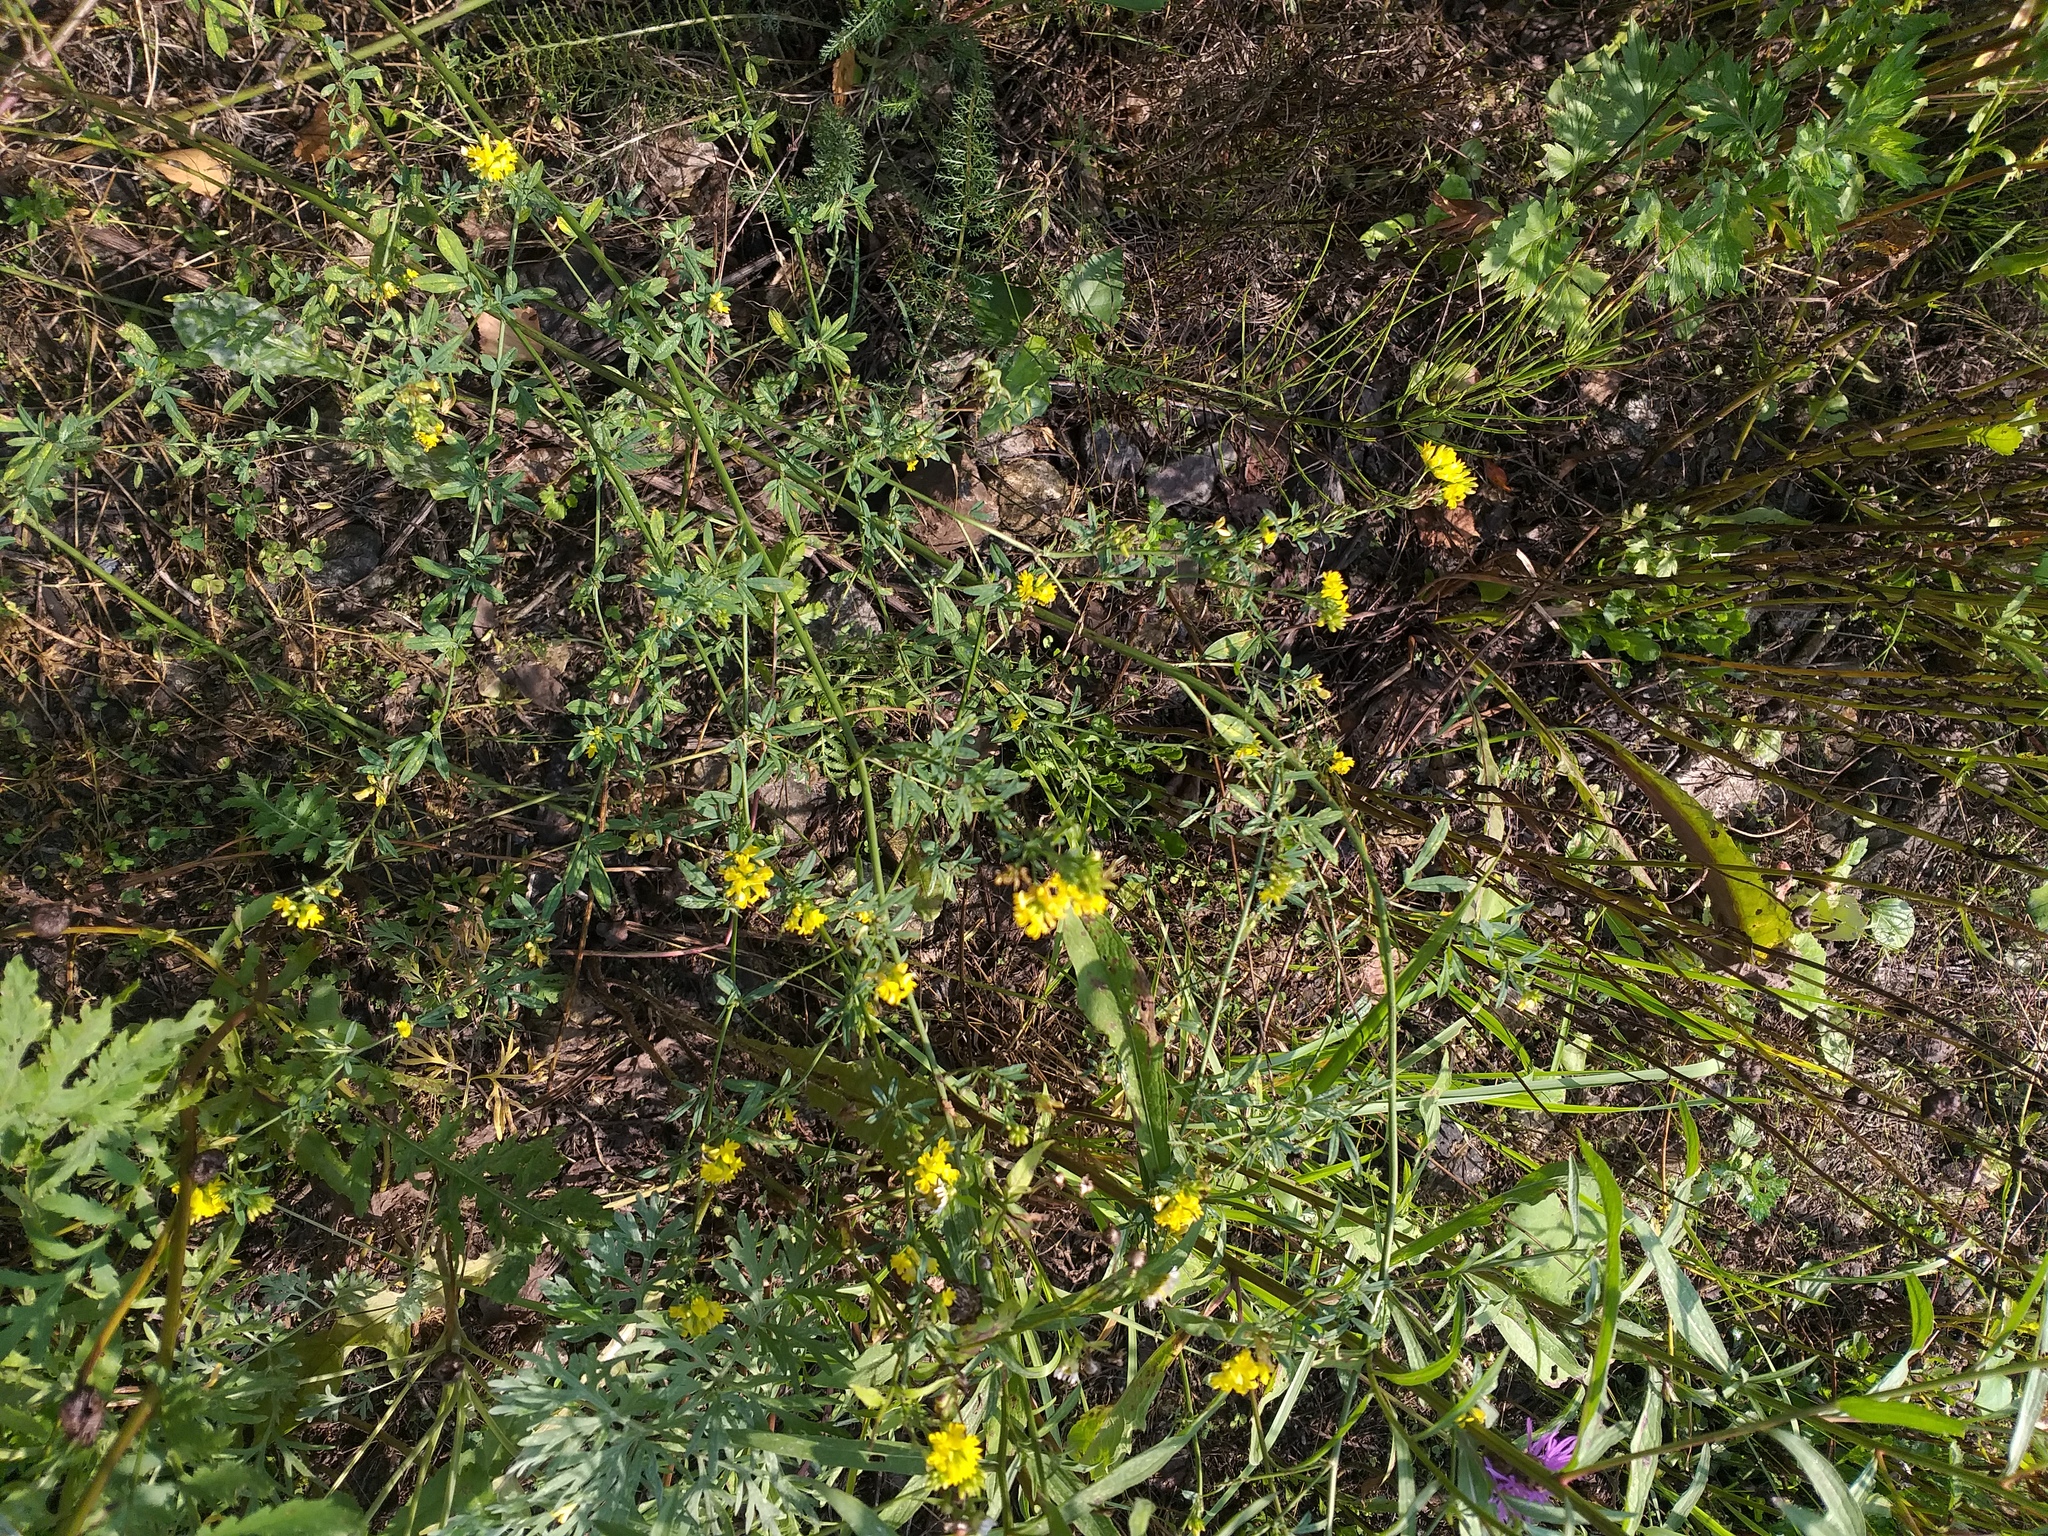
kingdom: Plantae
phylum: Tracheophyta
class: Magnoliopsida
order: Fabales
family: Fabaceae
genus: Medicago
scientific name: Medicago falcata
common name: Sickle medick
